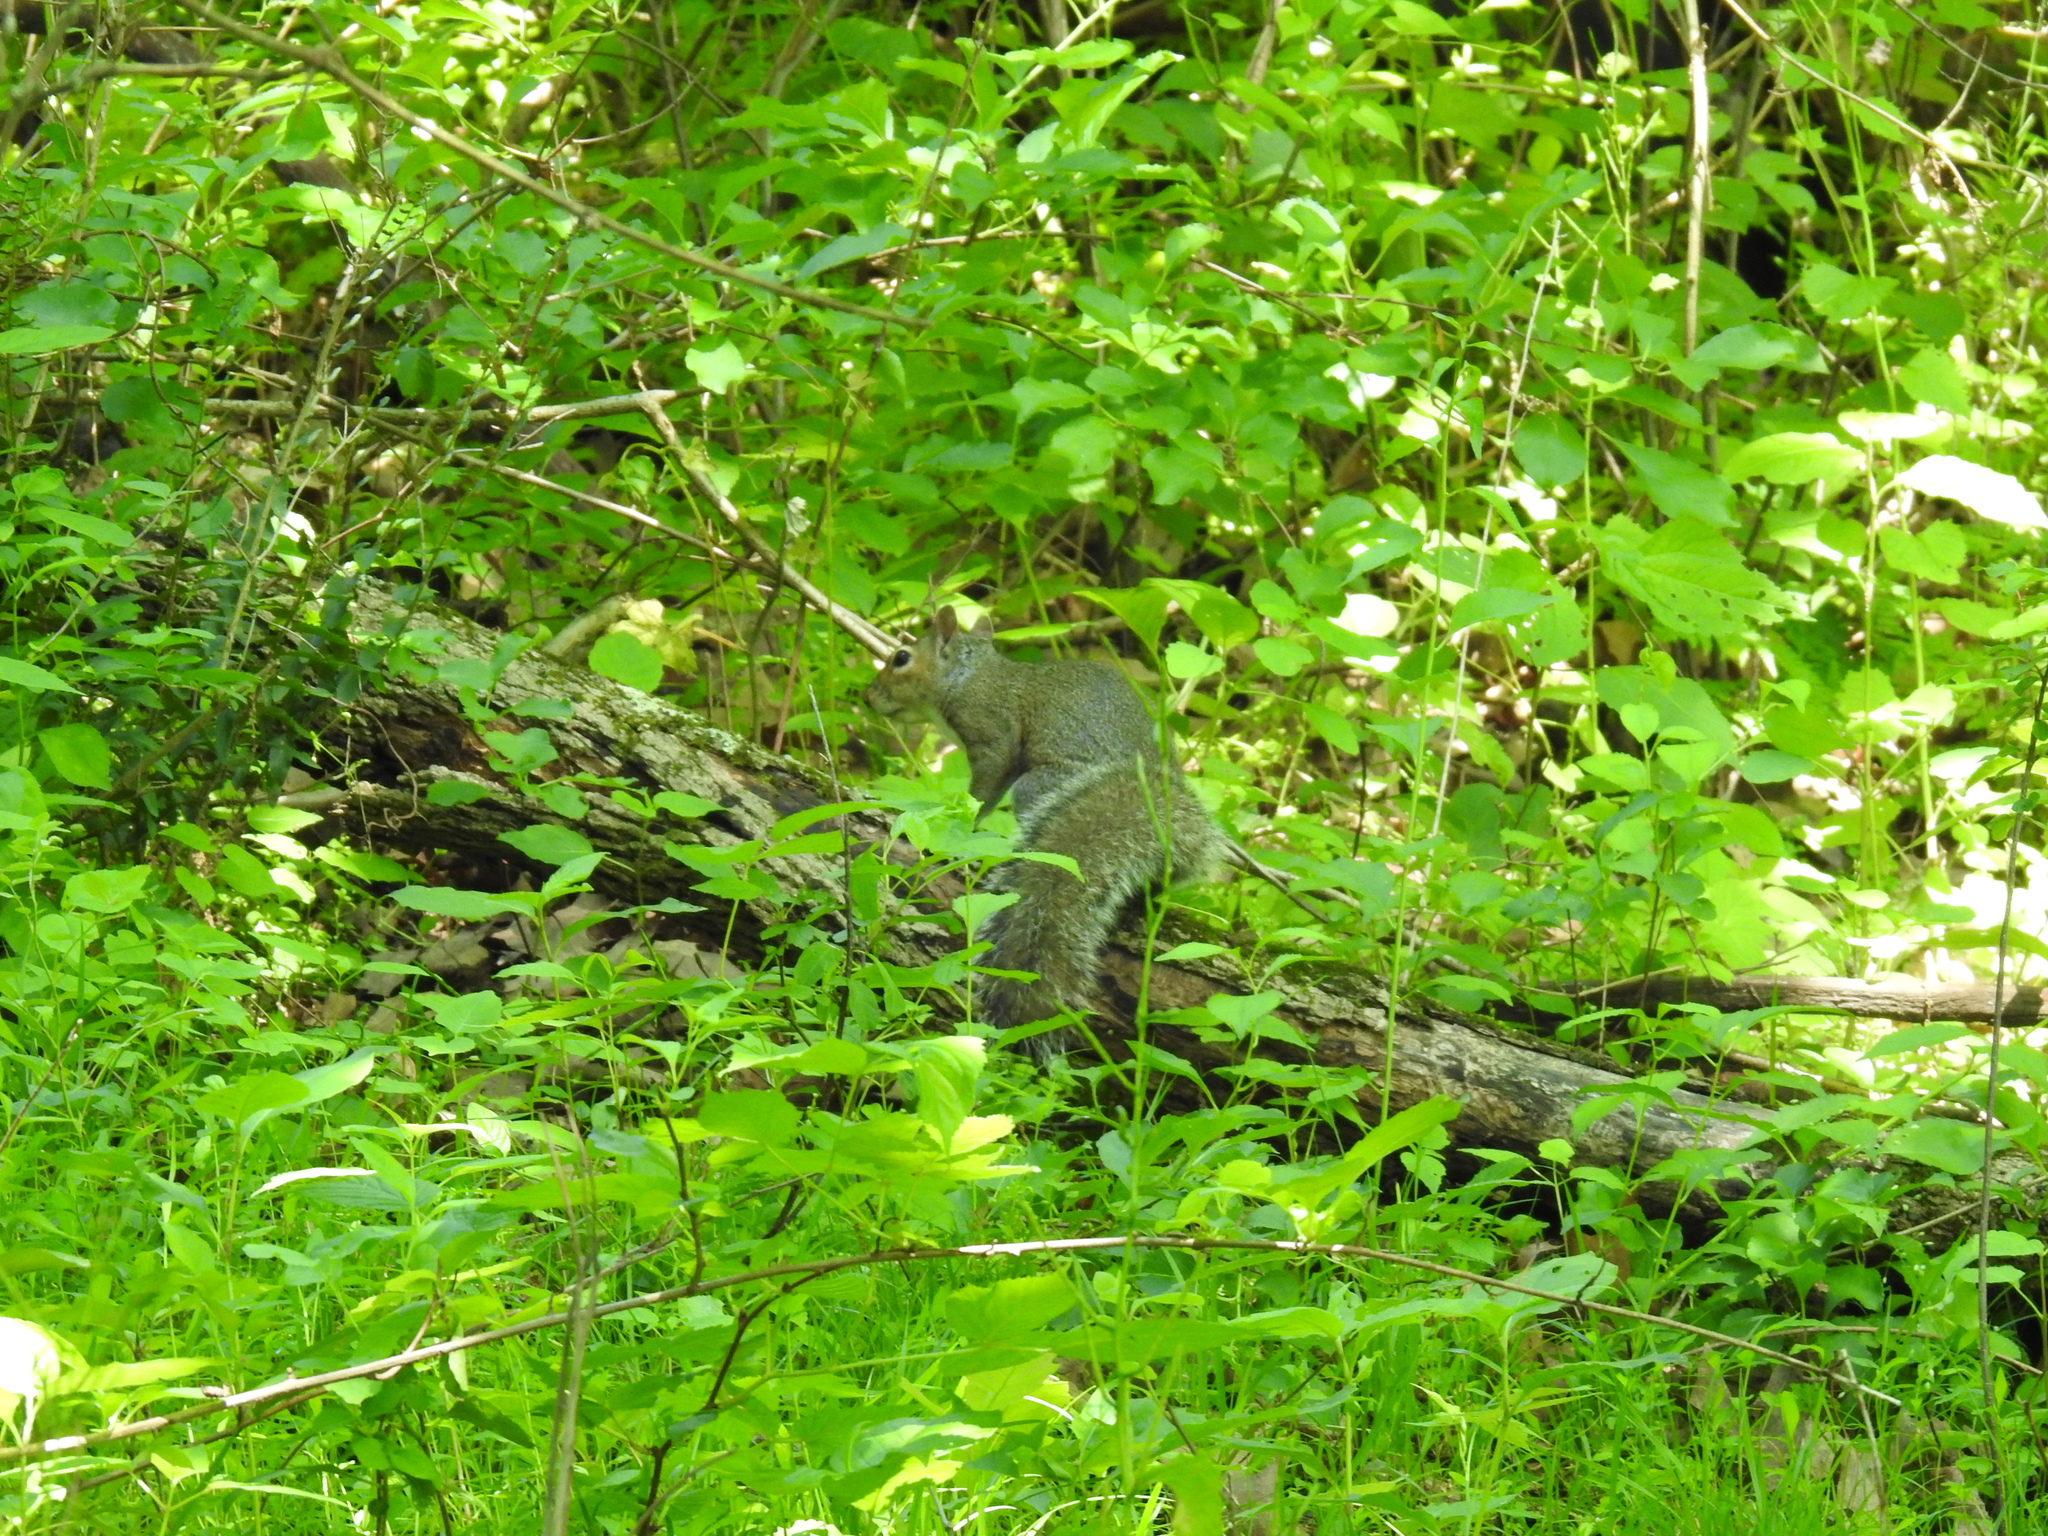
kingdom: Animalia
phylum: Chordata
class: Mammalia
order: Rodentia
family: Sciuridae
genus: Sciurus
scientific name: Sciurus carolinensis
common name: Eastern gray squirrel
